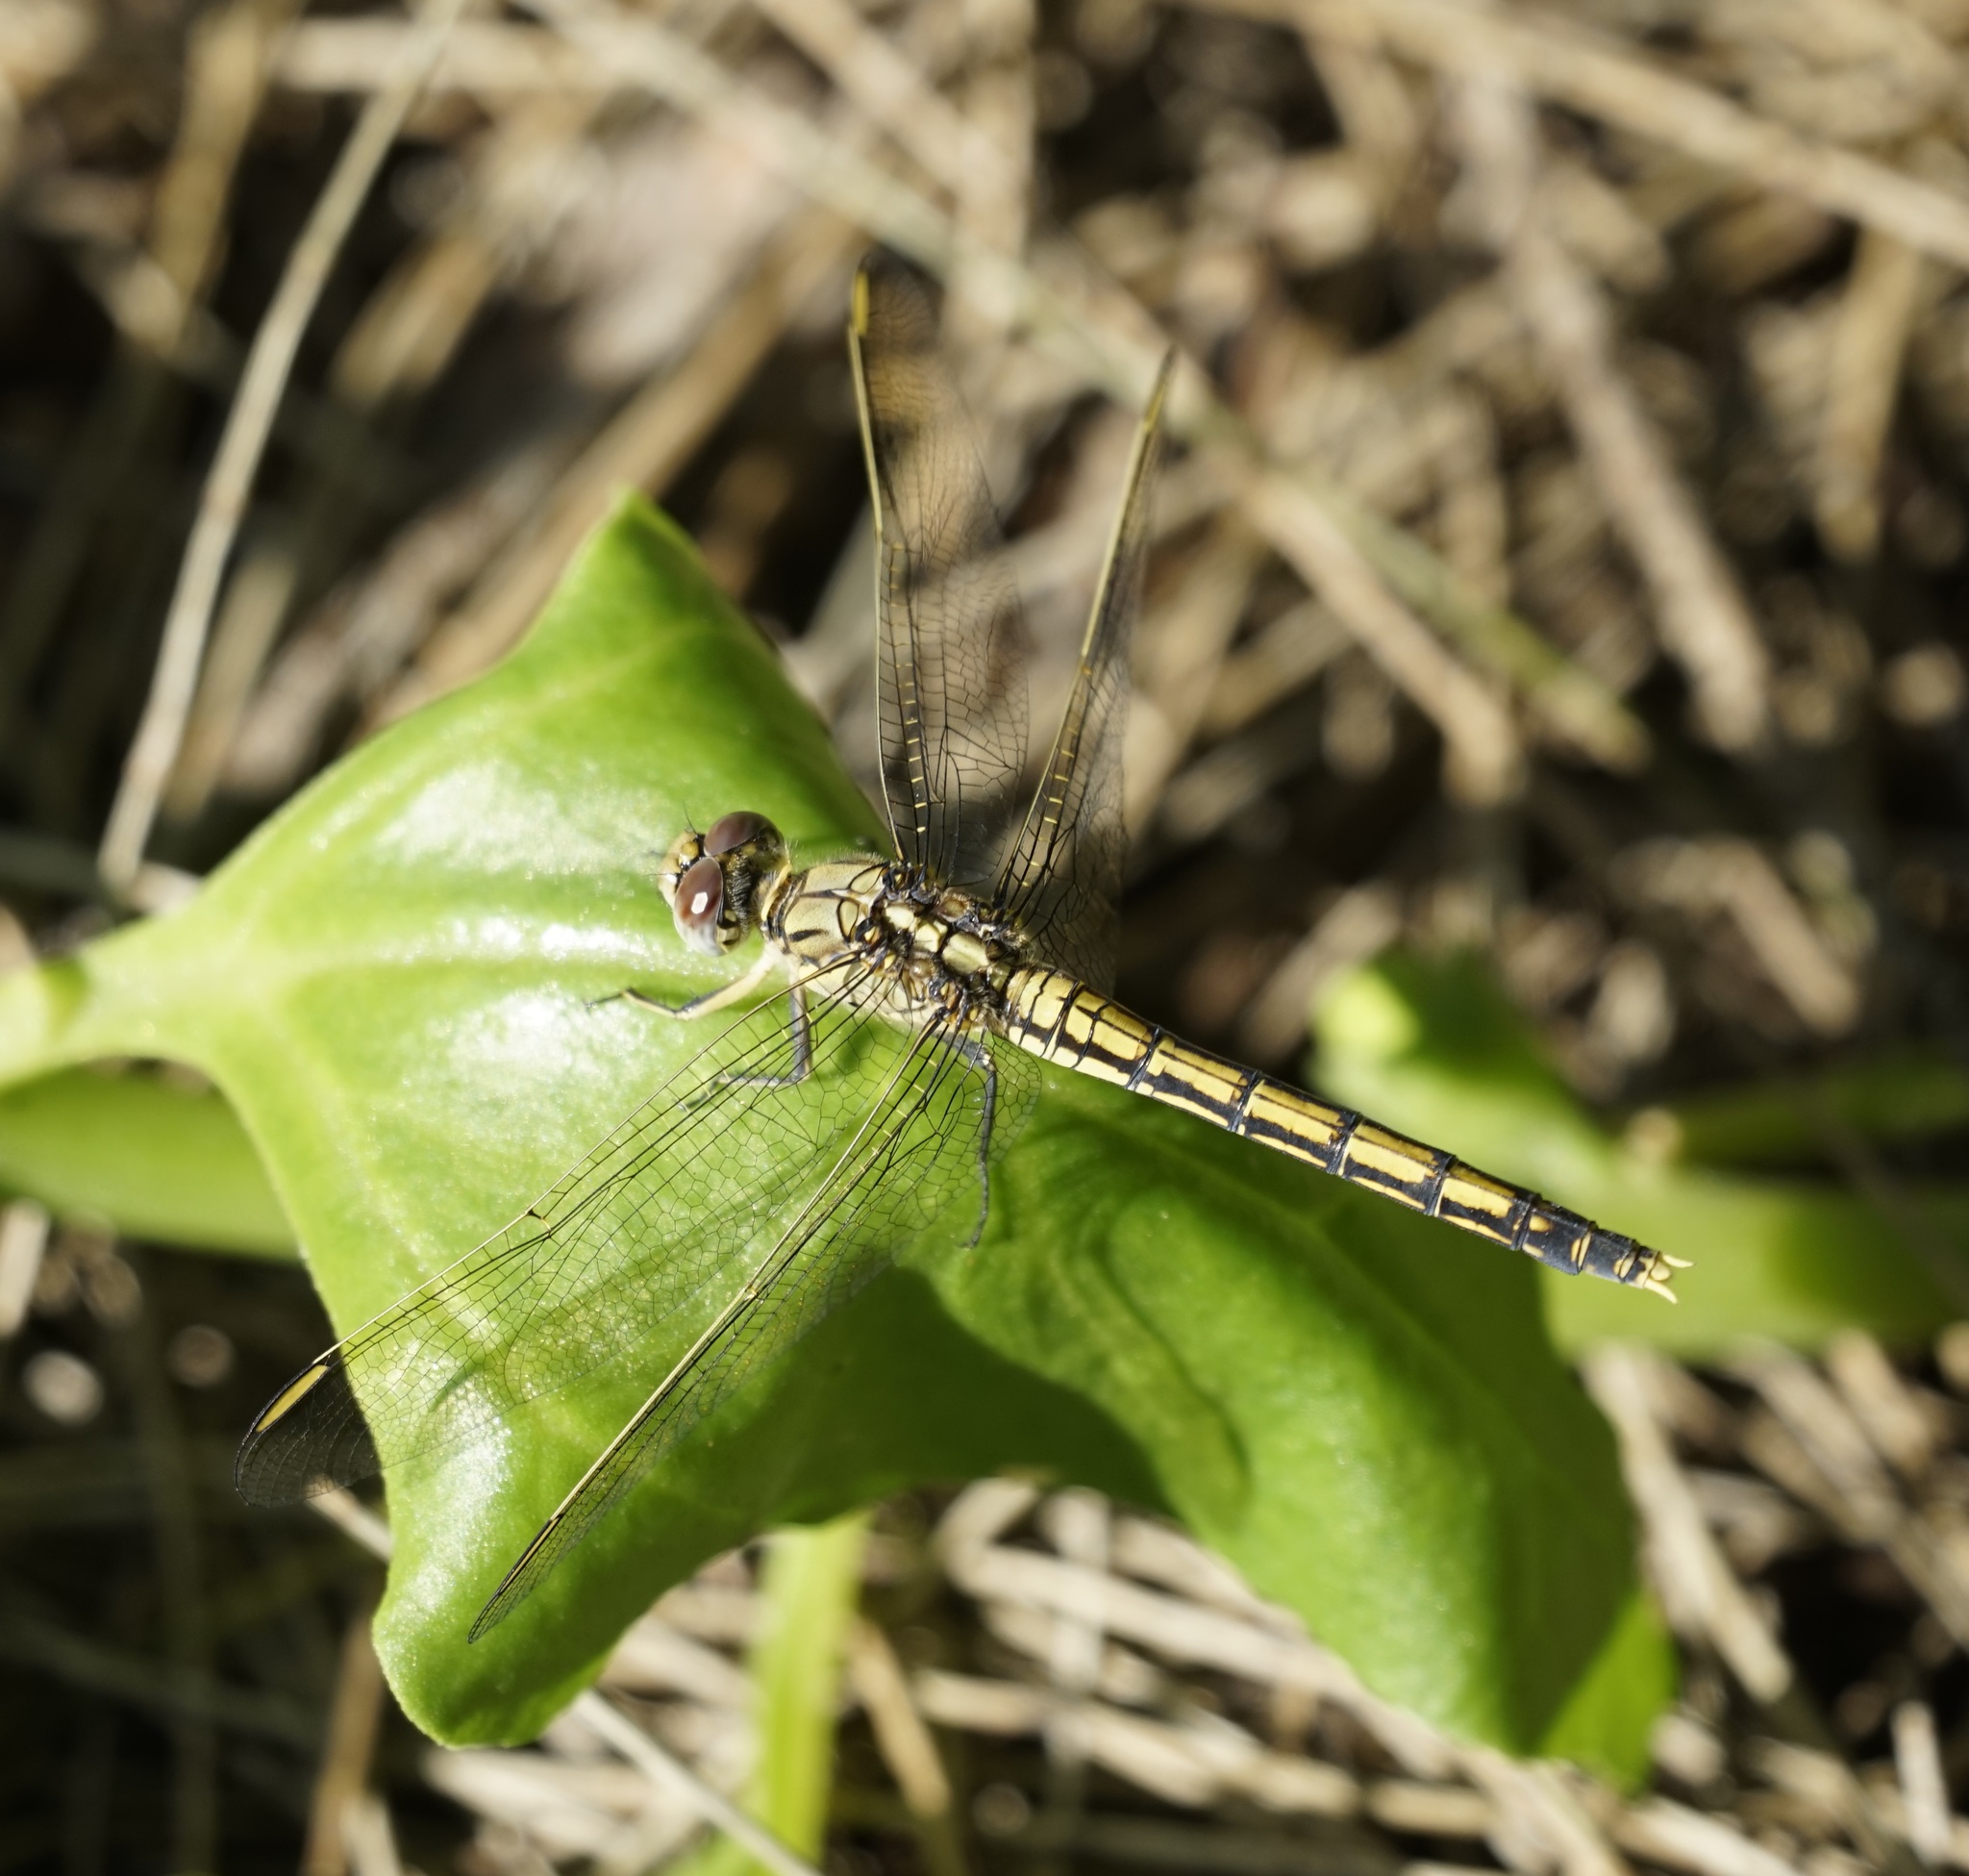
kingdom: Animalia
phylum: Arthropoda
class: Insecta
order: Odonata
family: Libellulidae
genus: Orthetrum
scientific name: Orthetrum caledonicum
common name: Blue skimmer
